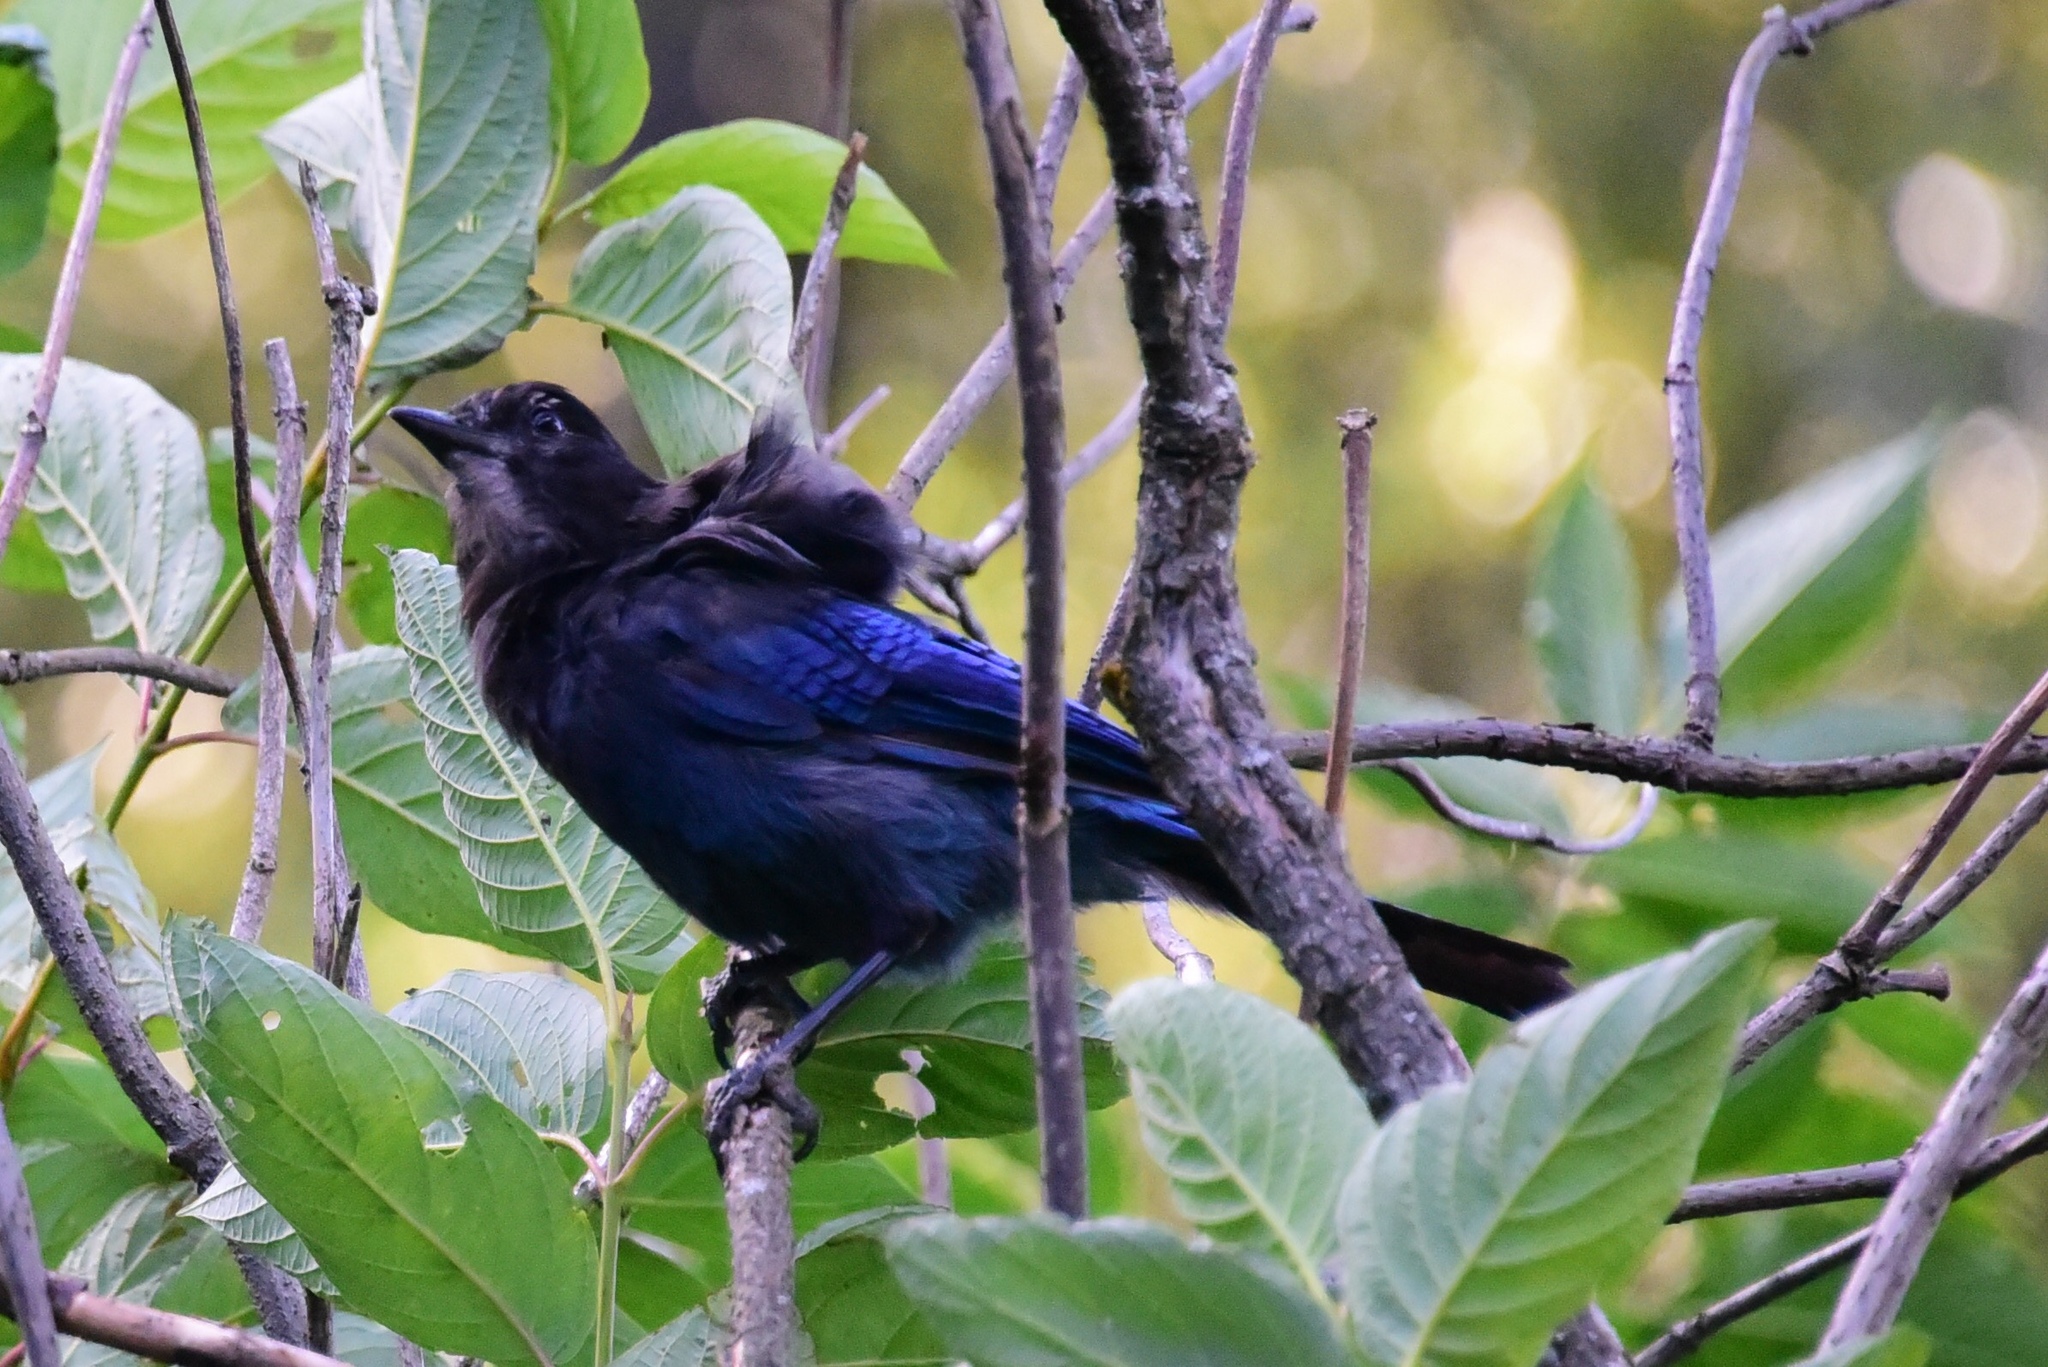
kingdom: Animalia
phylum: Chordata
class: Aves
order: Passeriformes
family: Corvidae
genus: Cyanocitta
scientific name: Cyanocitta stelleri
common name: Steller's jay
